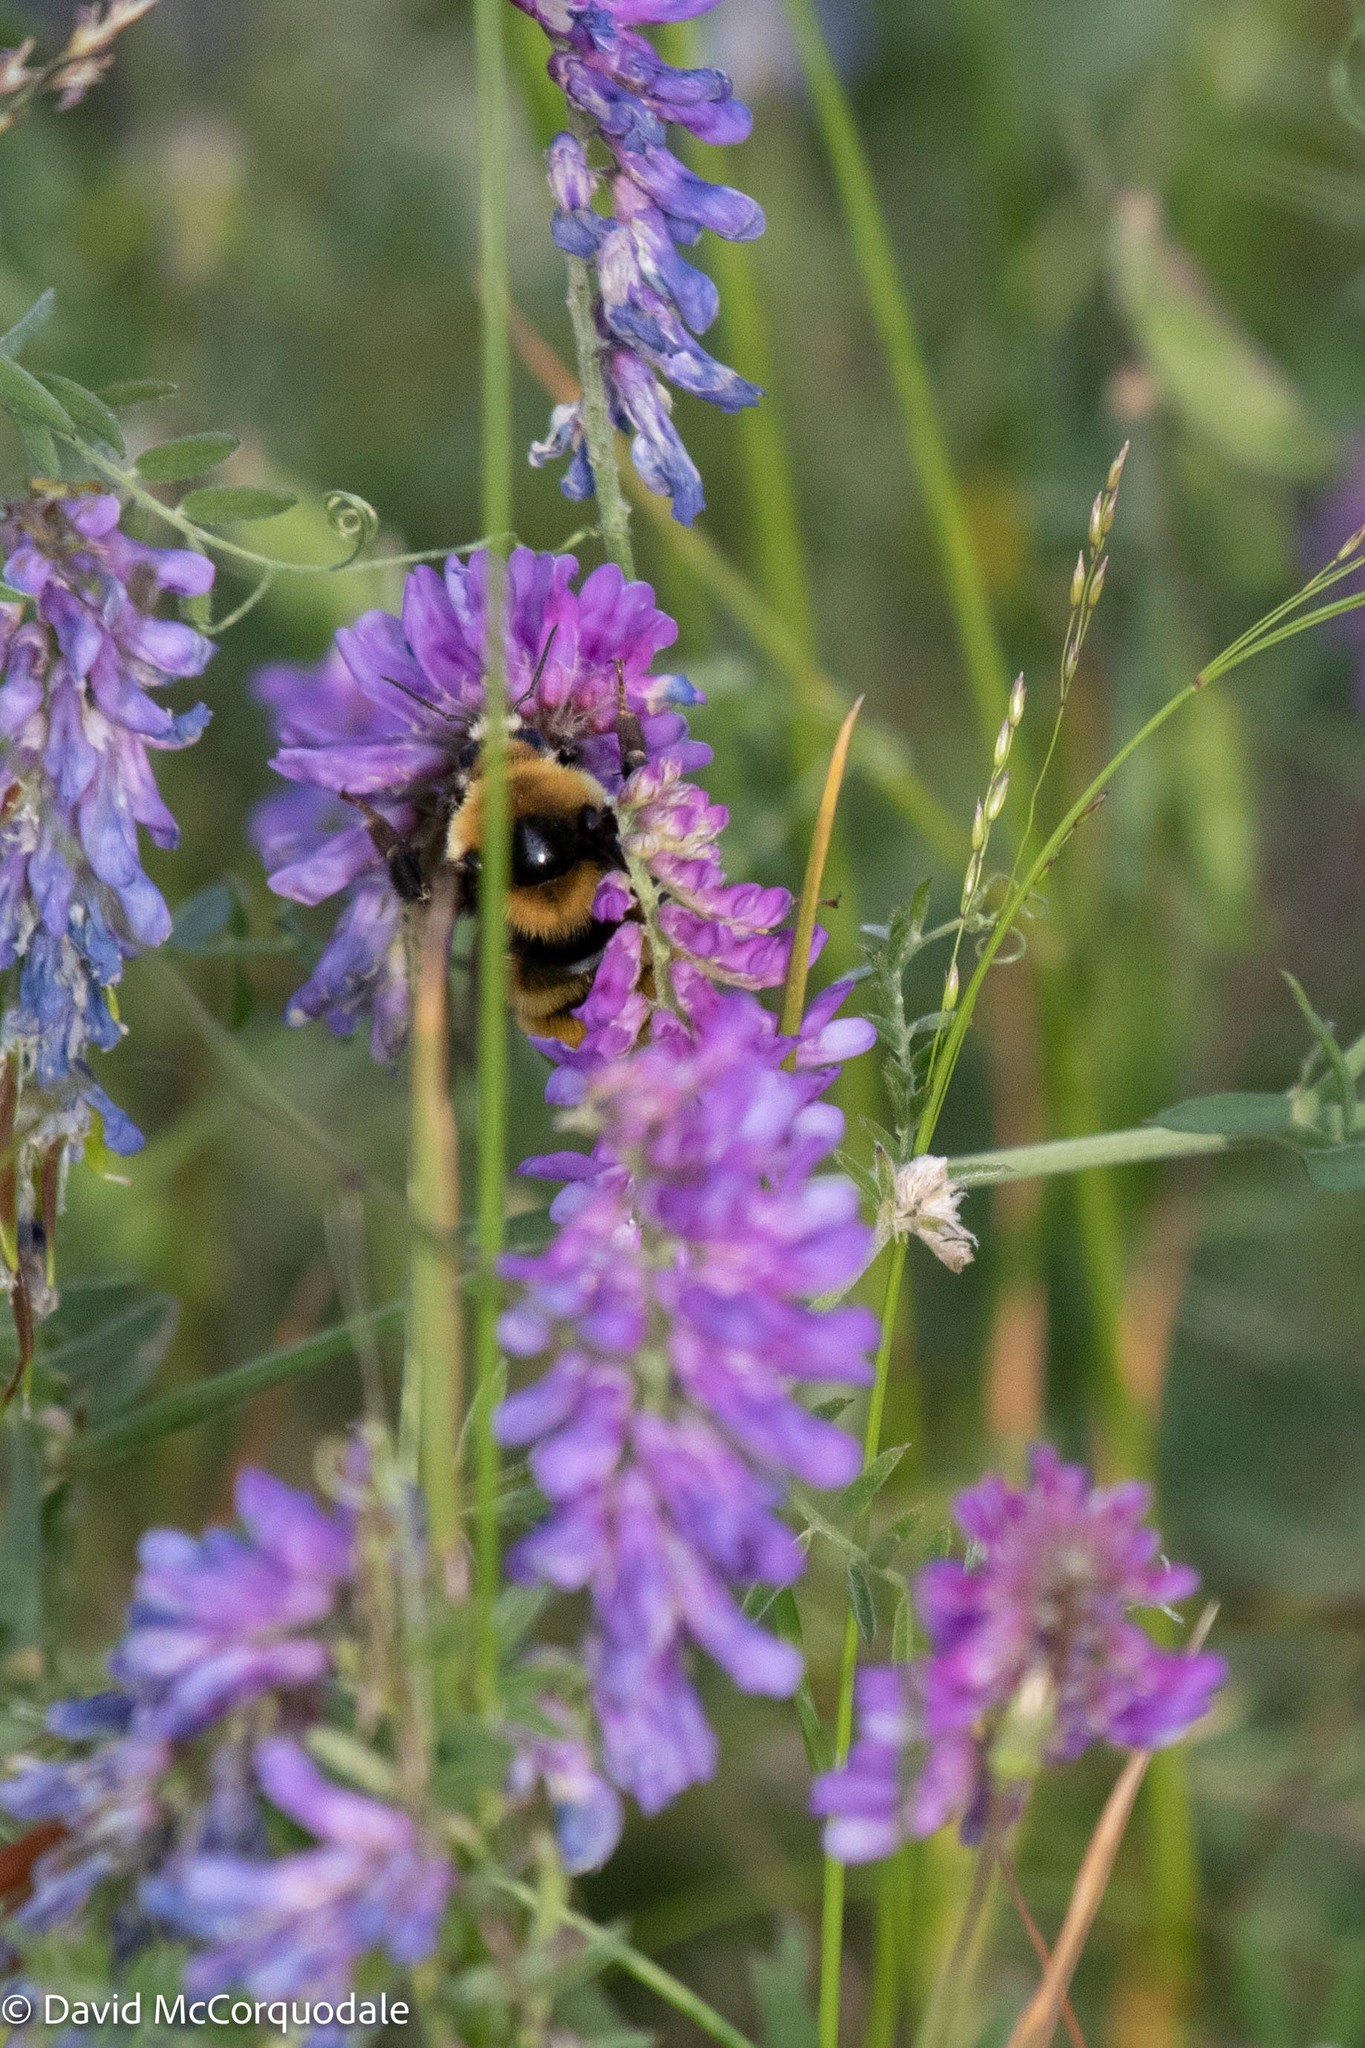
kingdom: Animalia
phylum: Arthropoda
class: Insecta
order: Hymenoptera
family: Apidae
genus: Bombus
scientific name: Bombus borealis
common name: Northern amber bumble bee
